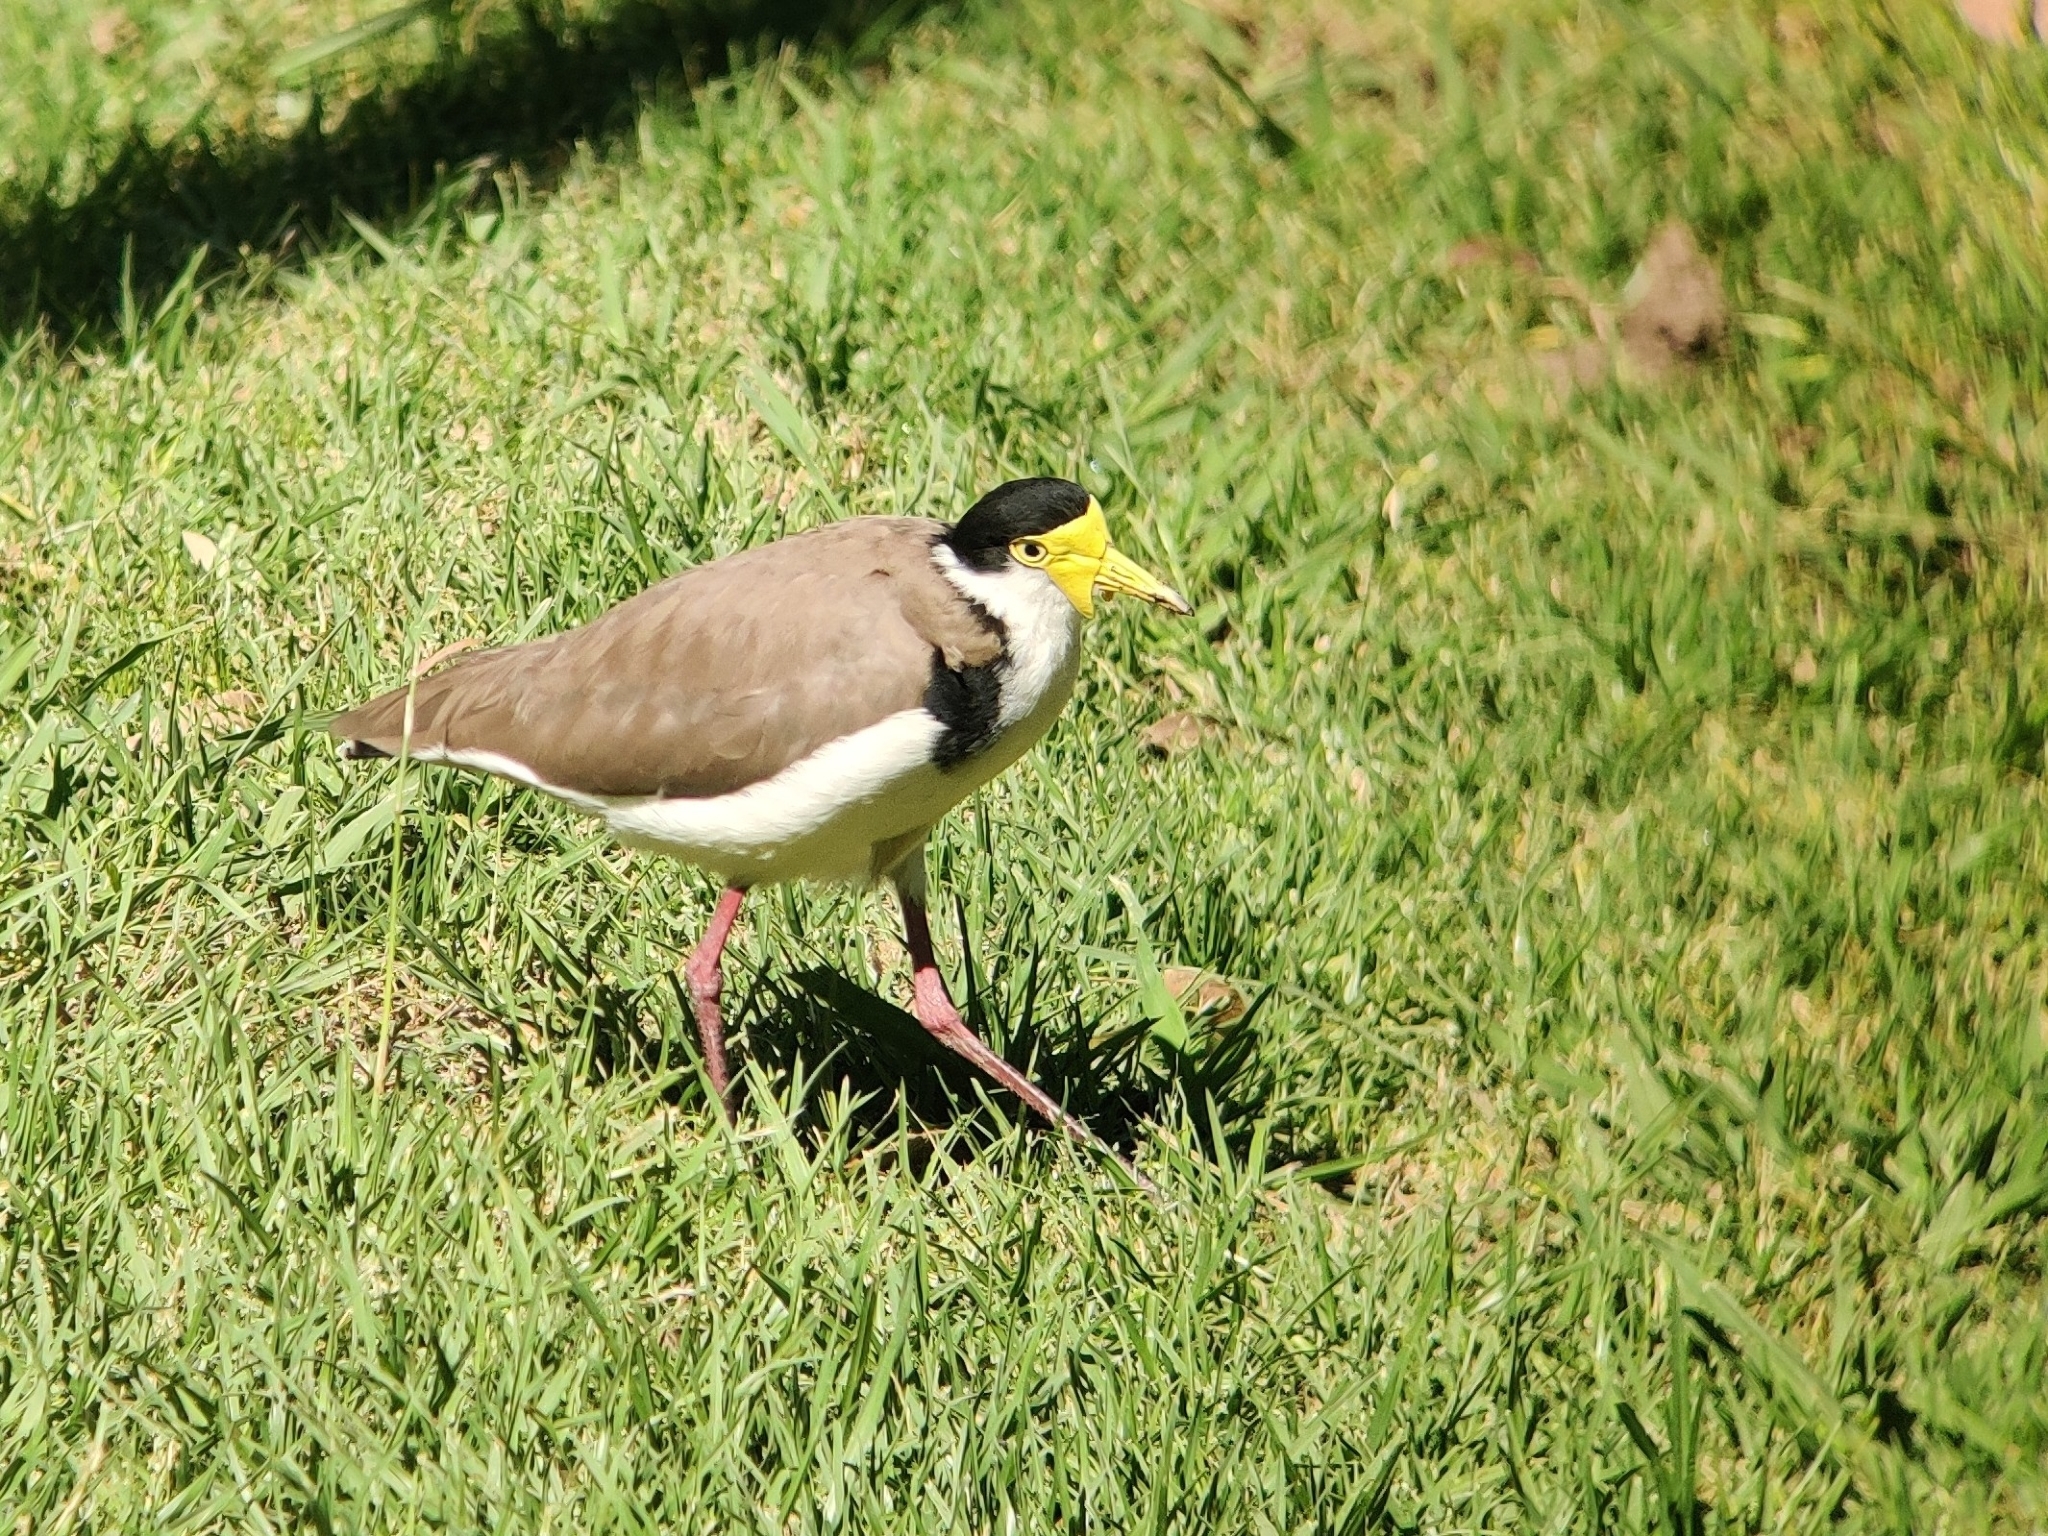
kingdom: Animalia
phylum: Chordata
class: Aves
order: Charadriiformes
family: Charadriidae
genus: Vanellus
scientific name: Vanellus miles
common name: Masked lapwing
